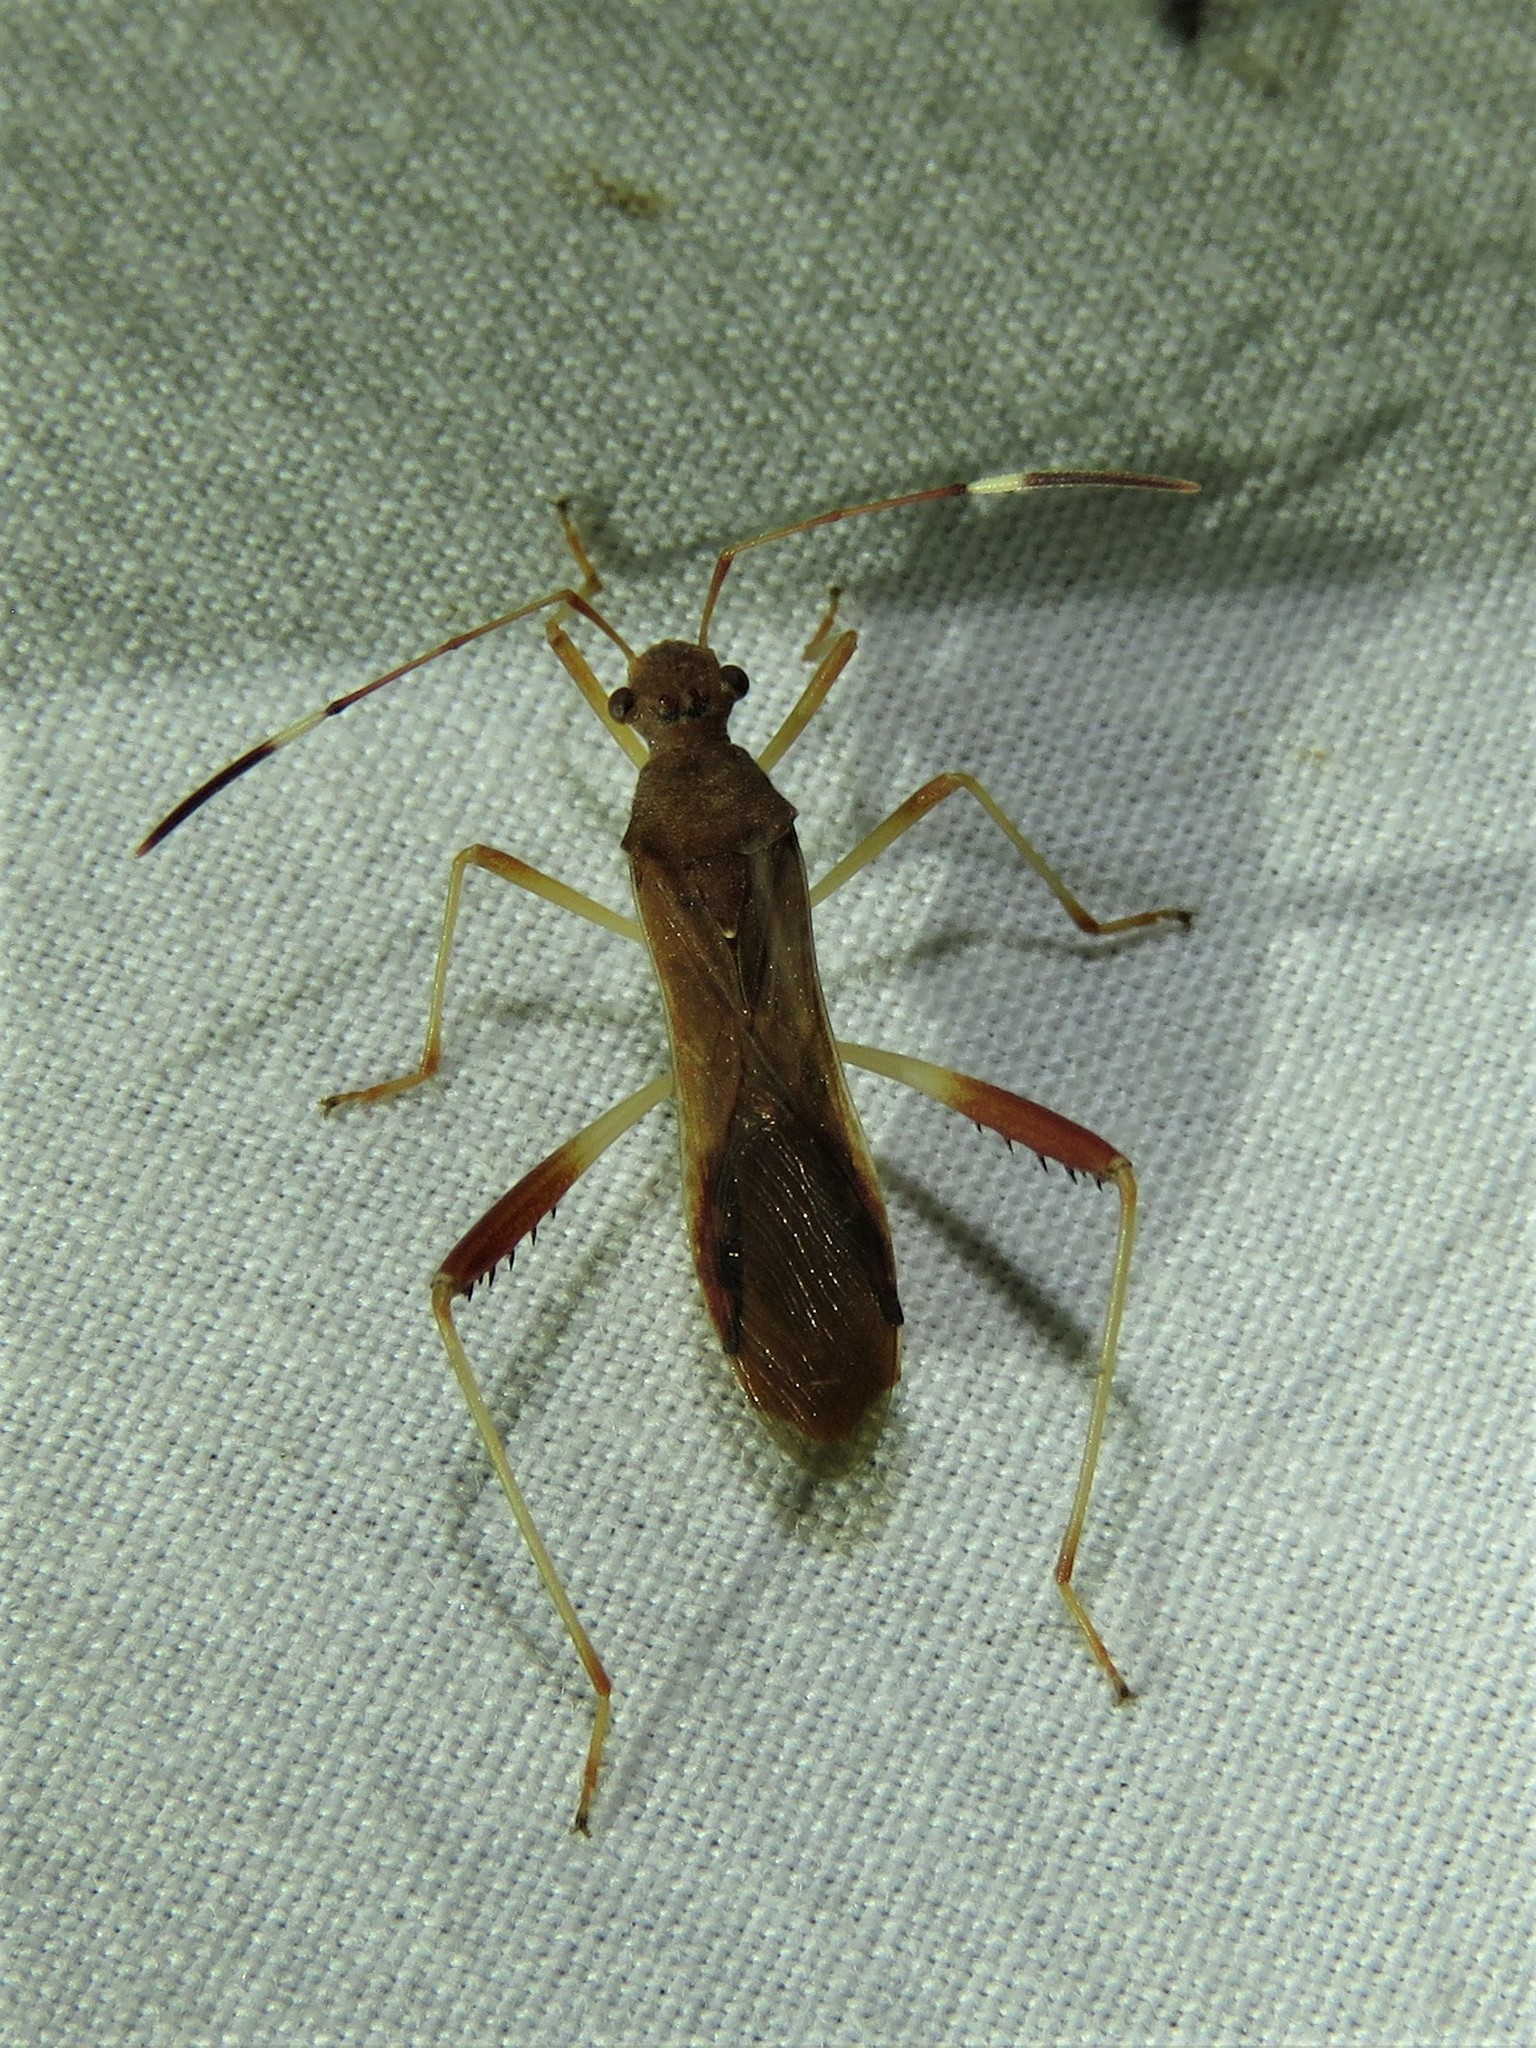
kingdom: Animalia
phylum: Arthropoda
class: Insecta
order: Hemiptera
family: Alydidae
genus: Megalotomus
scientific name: Megalotomus quinquespinosus
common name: Lupine bug
